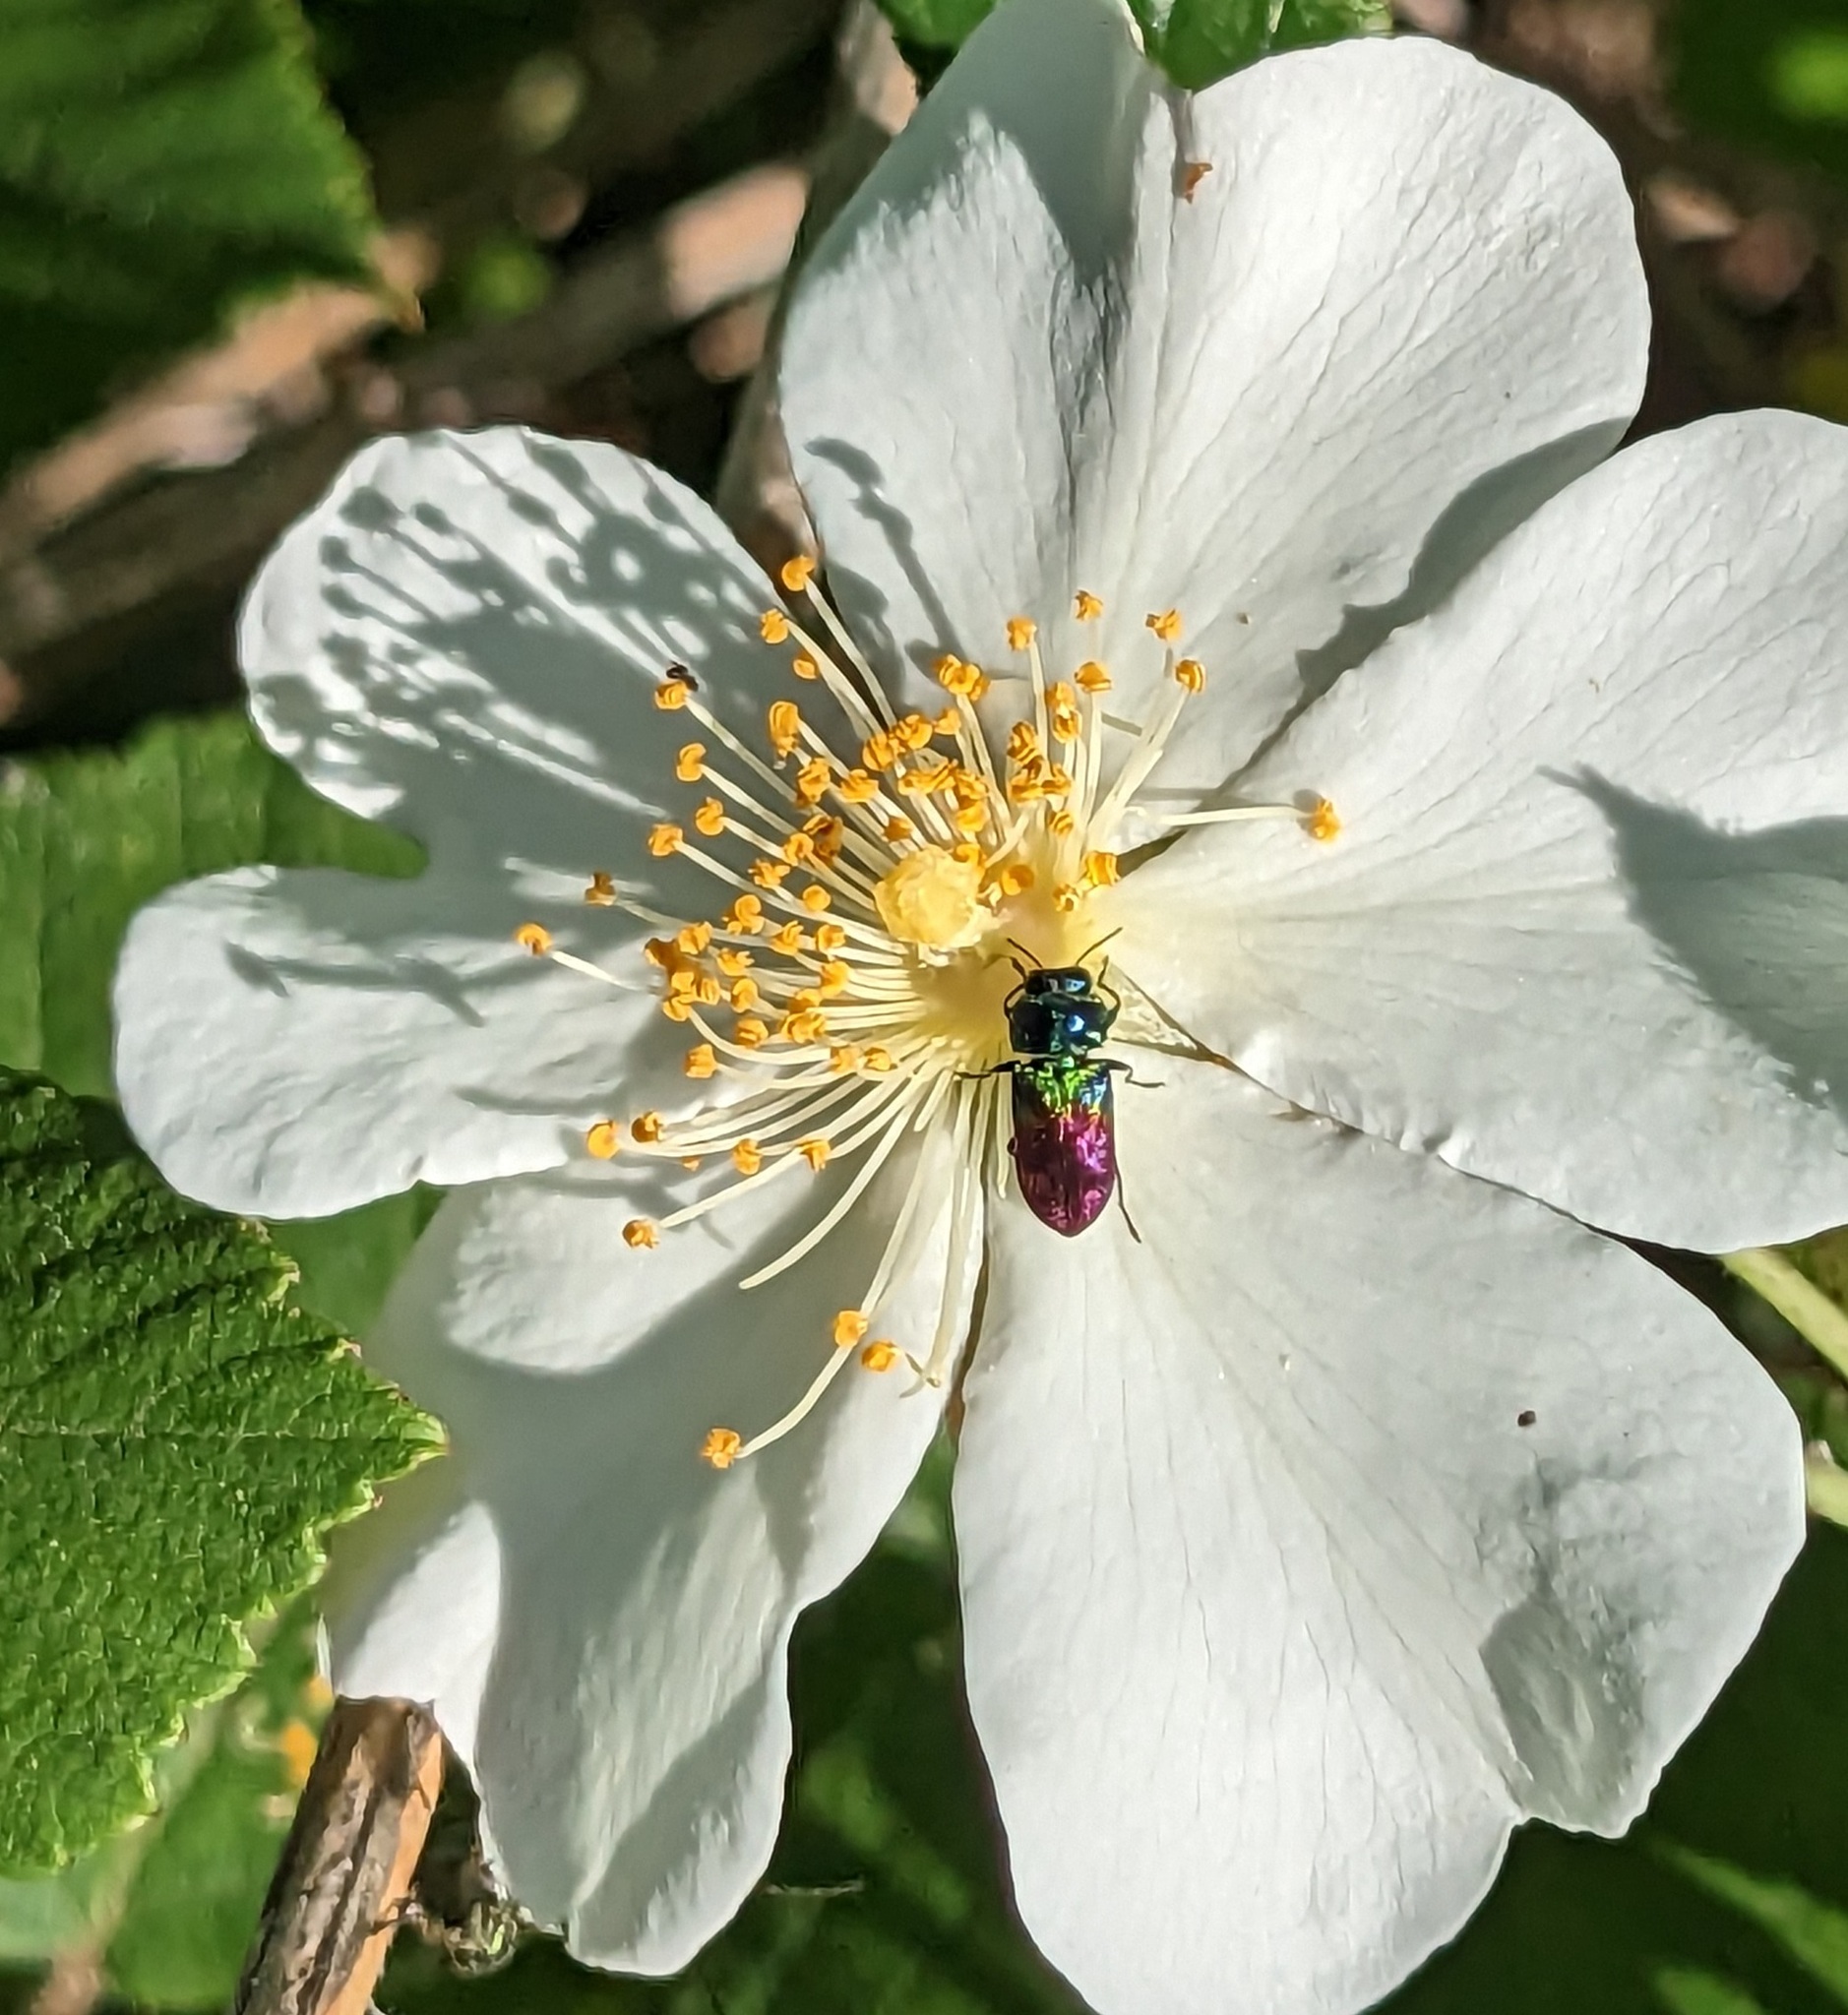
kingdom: Animalia
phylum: Arthropoda
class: Insecta
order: Coleoptera
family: Buprestidae
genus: Anthaxia
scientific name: Anthaxia dimidiata
